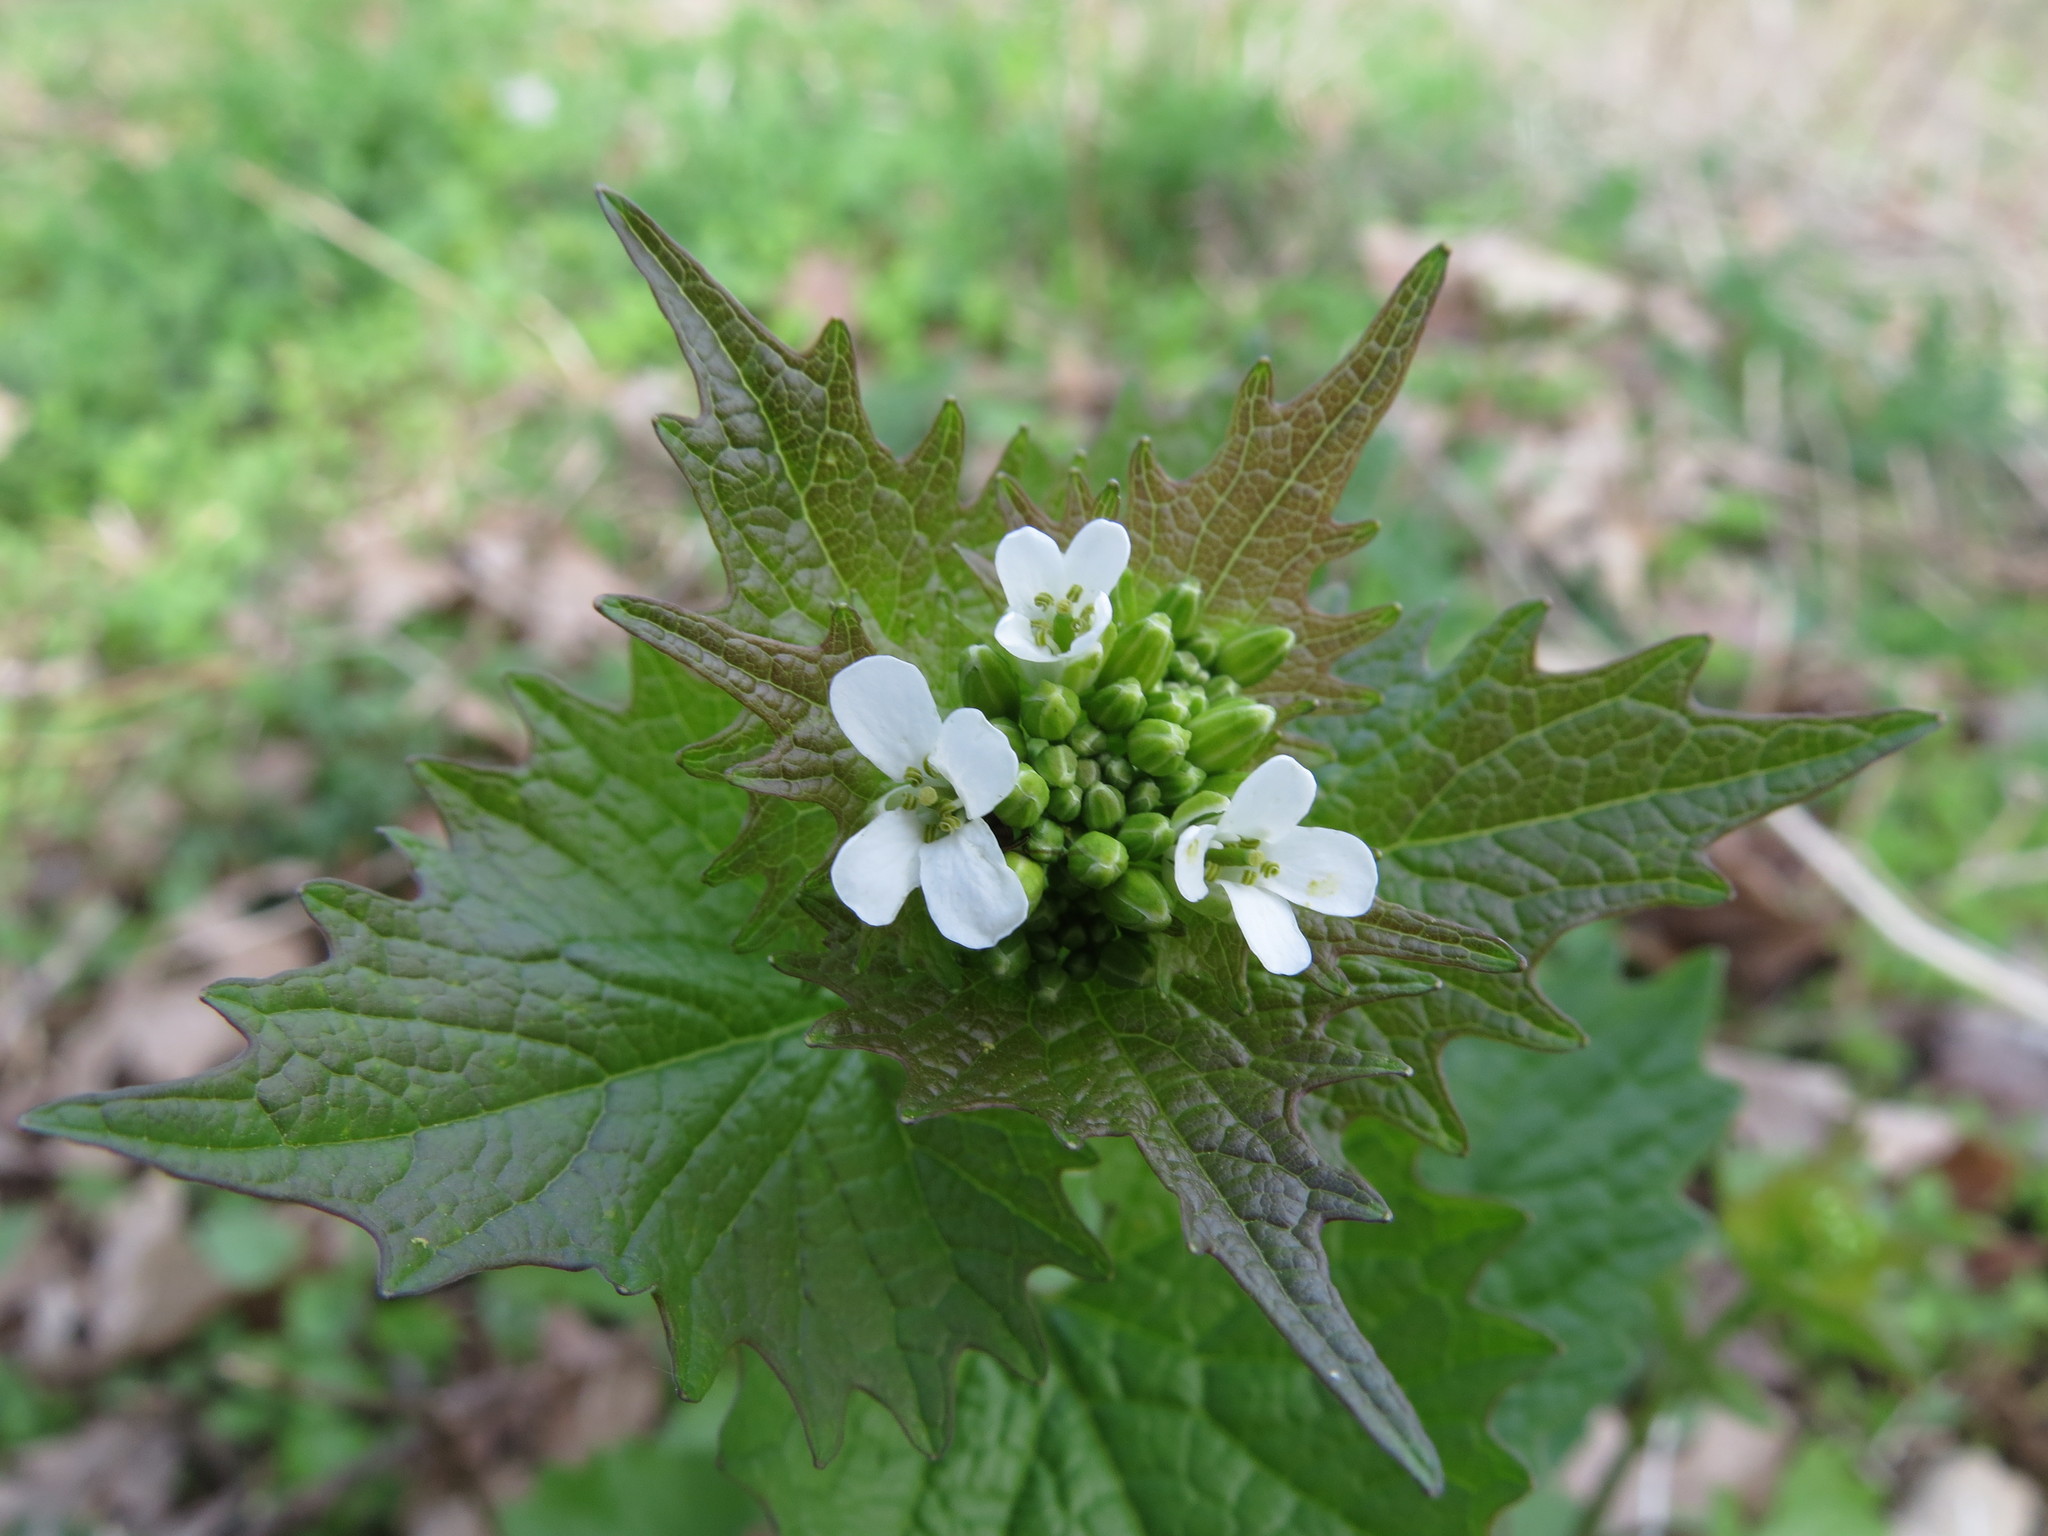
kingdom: Plantae
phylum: Tracheophyta
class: Magnoliopsida
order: Brassicales
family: Brassicaceae
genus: Alliaria
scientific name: Alliaria petiolata
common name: Garlic mustard
